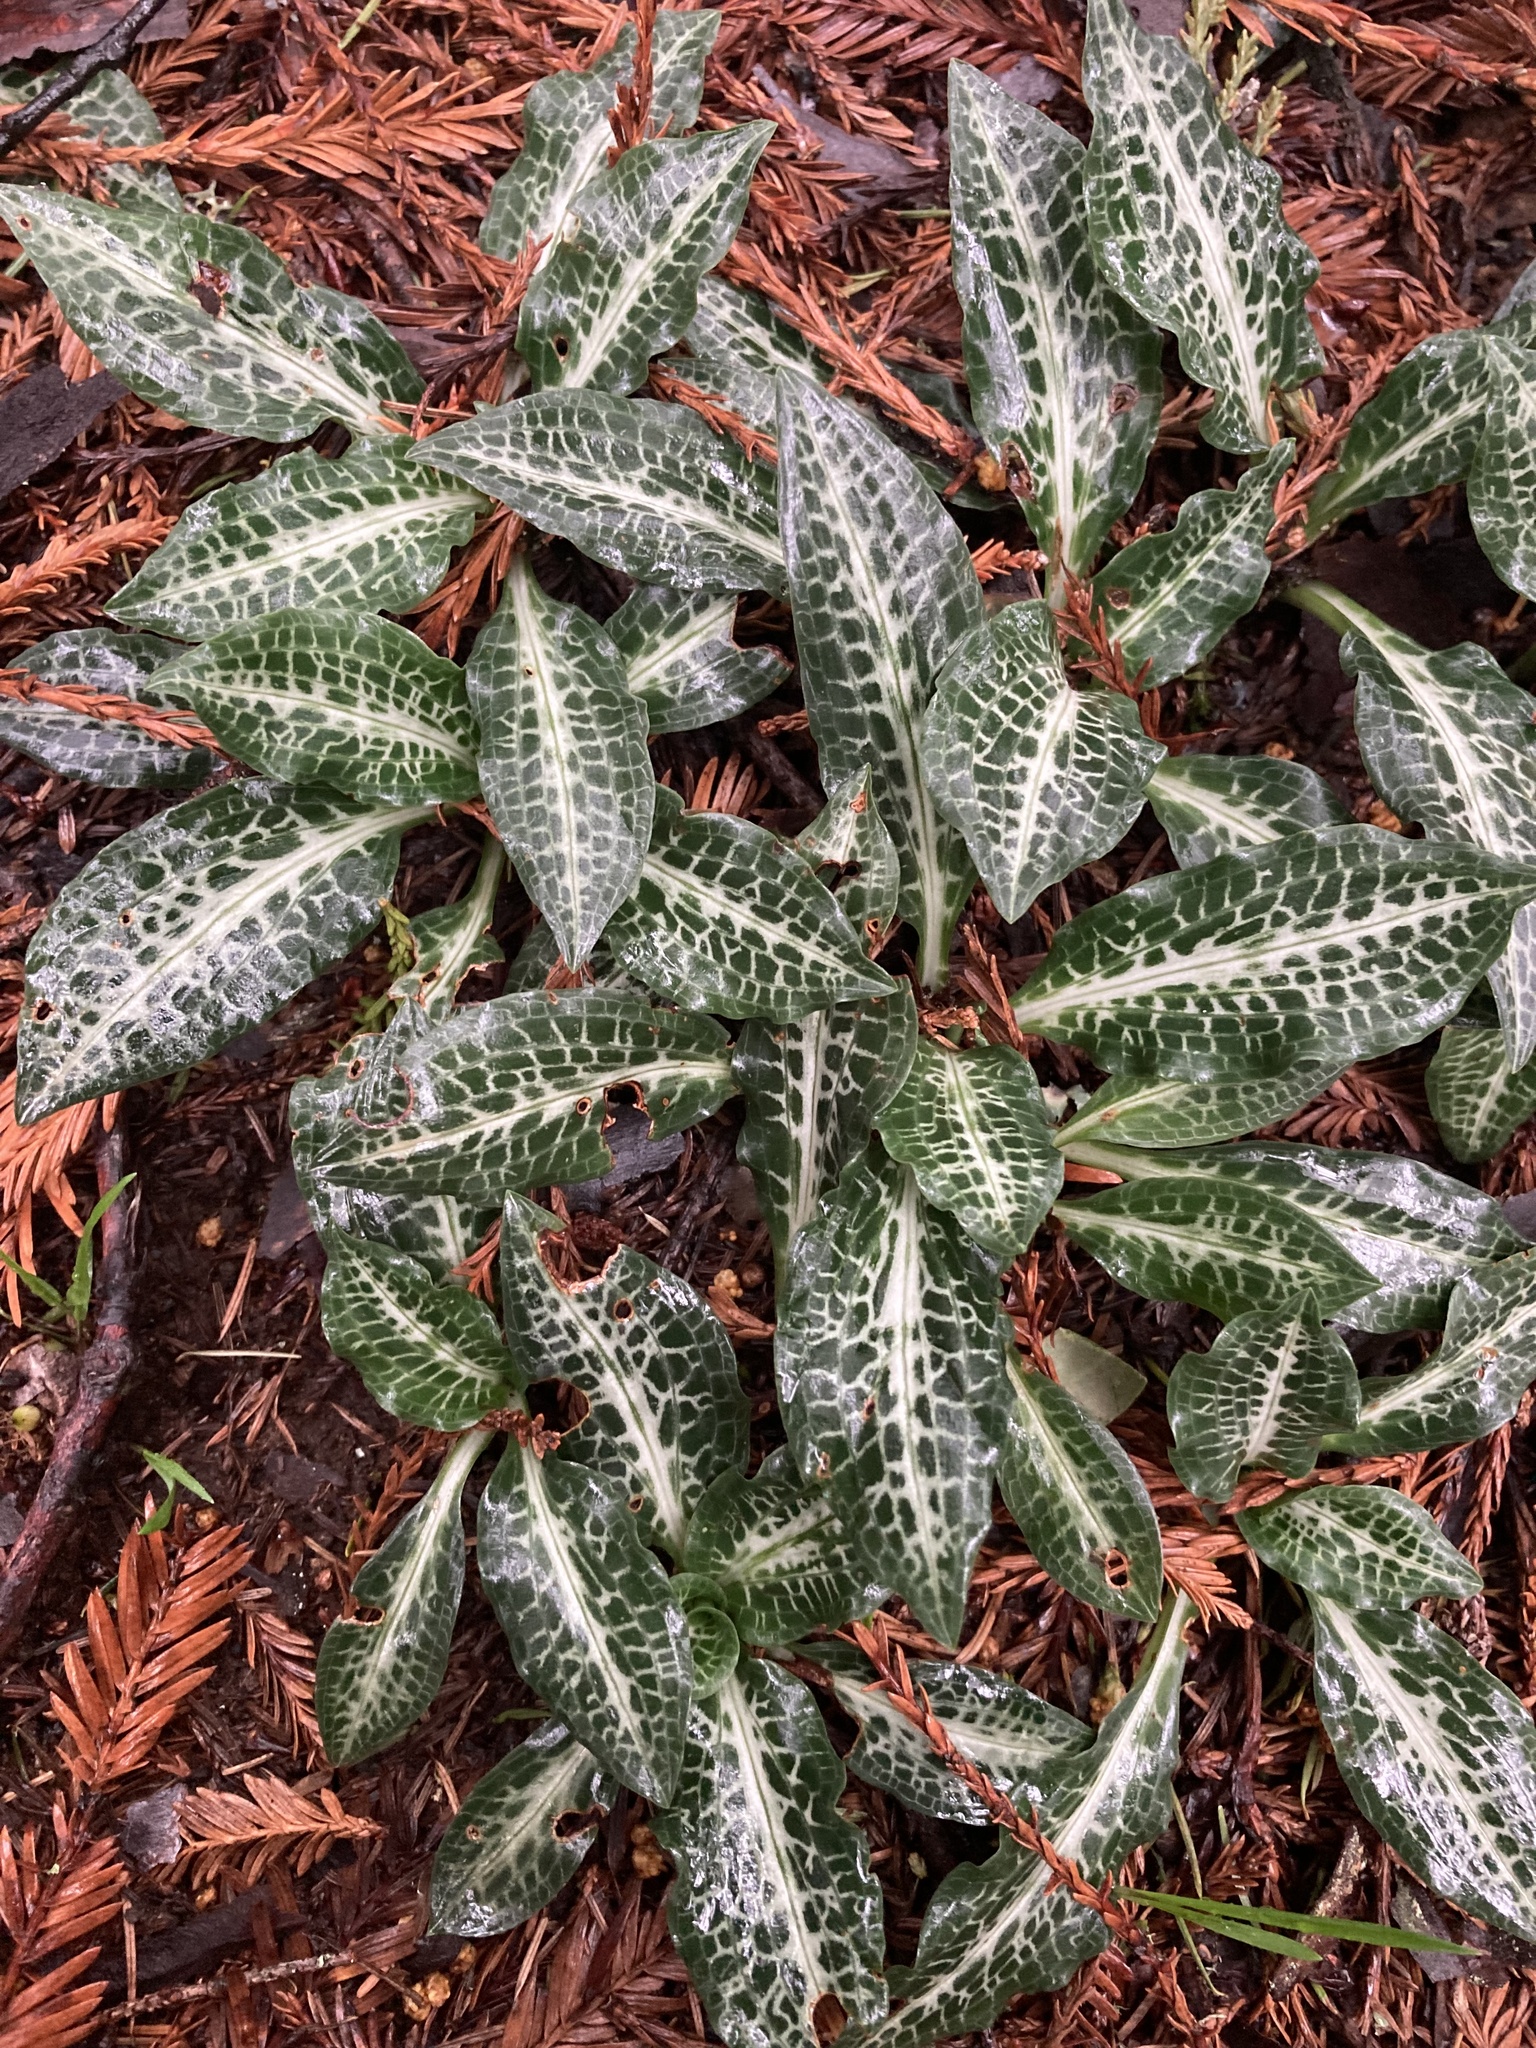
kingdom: Plantae
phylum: Tracheophyta
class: Liliopsida
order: Asparagales
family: Orchidaceae
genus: Goodyera
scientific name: Goodyera oblongifolia
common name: Giant rattlesnake-plantain
